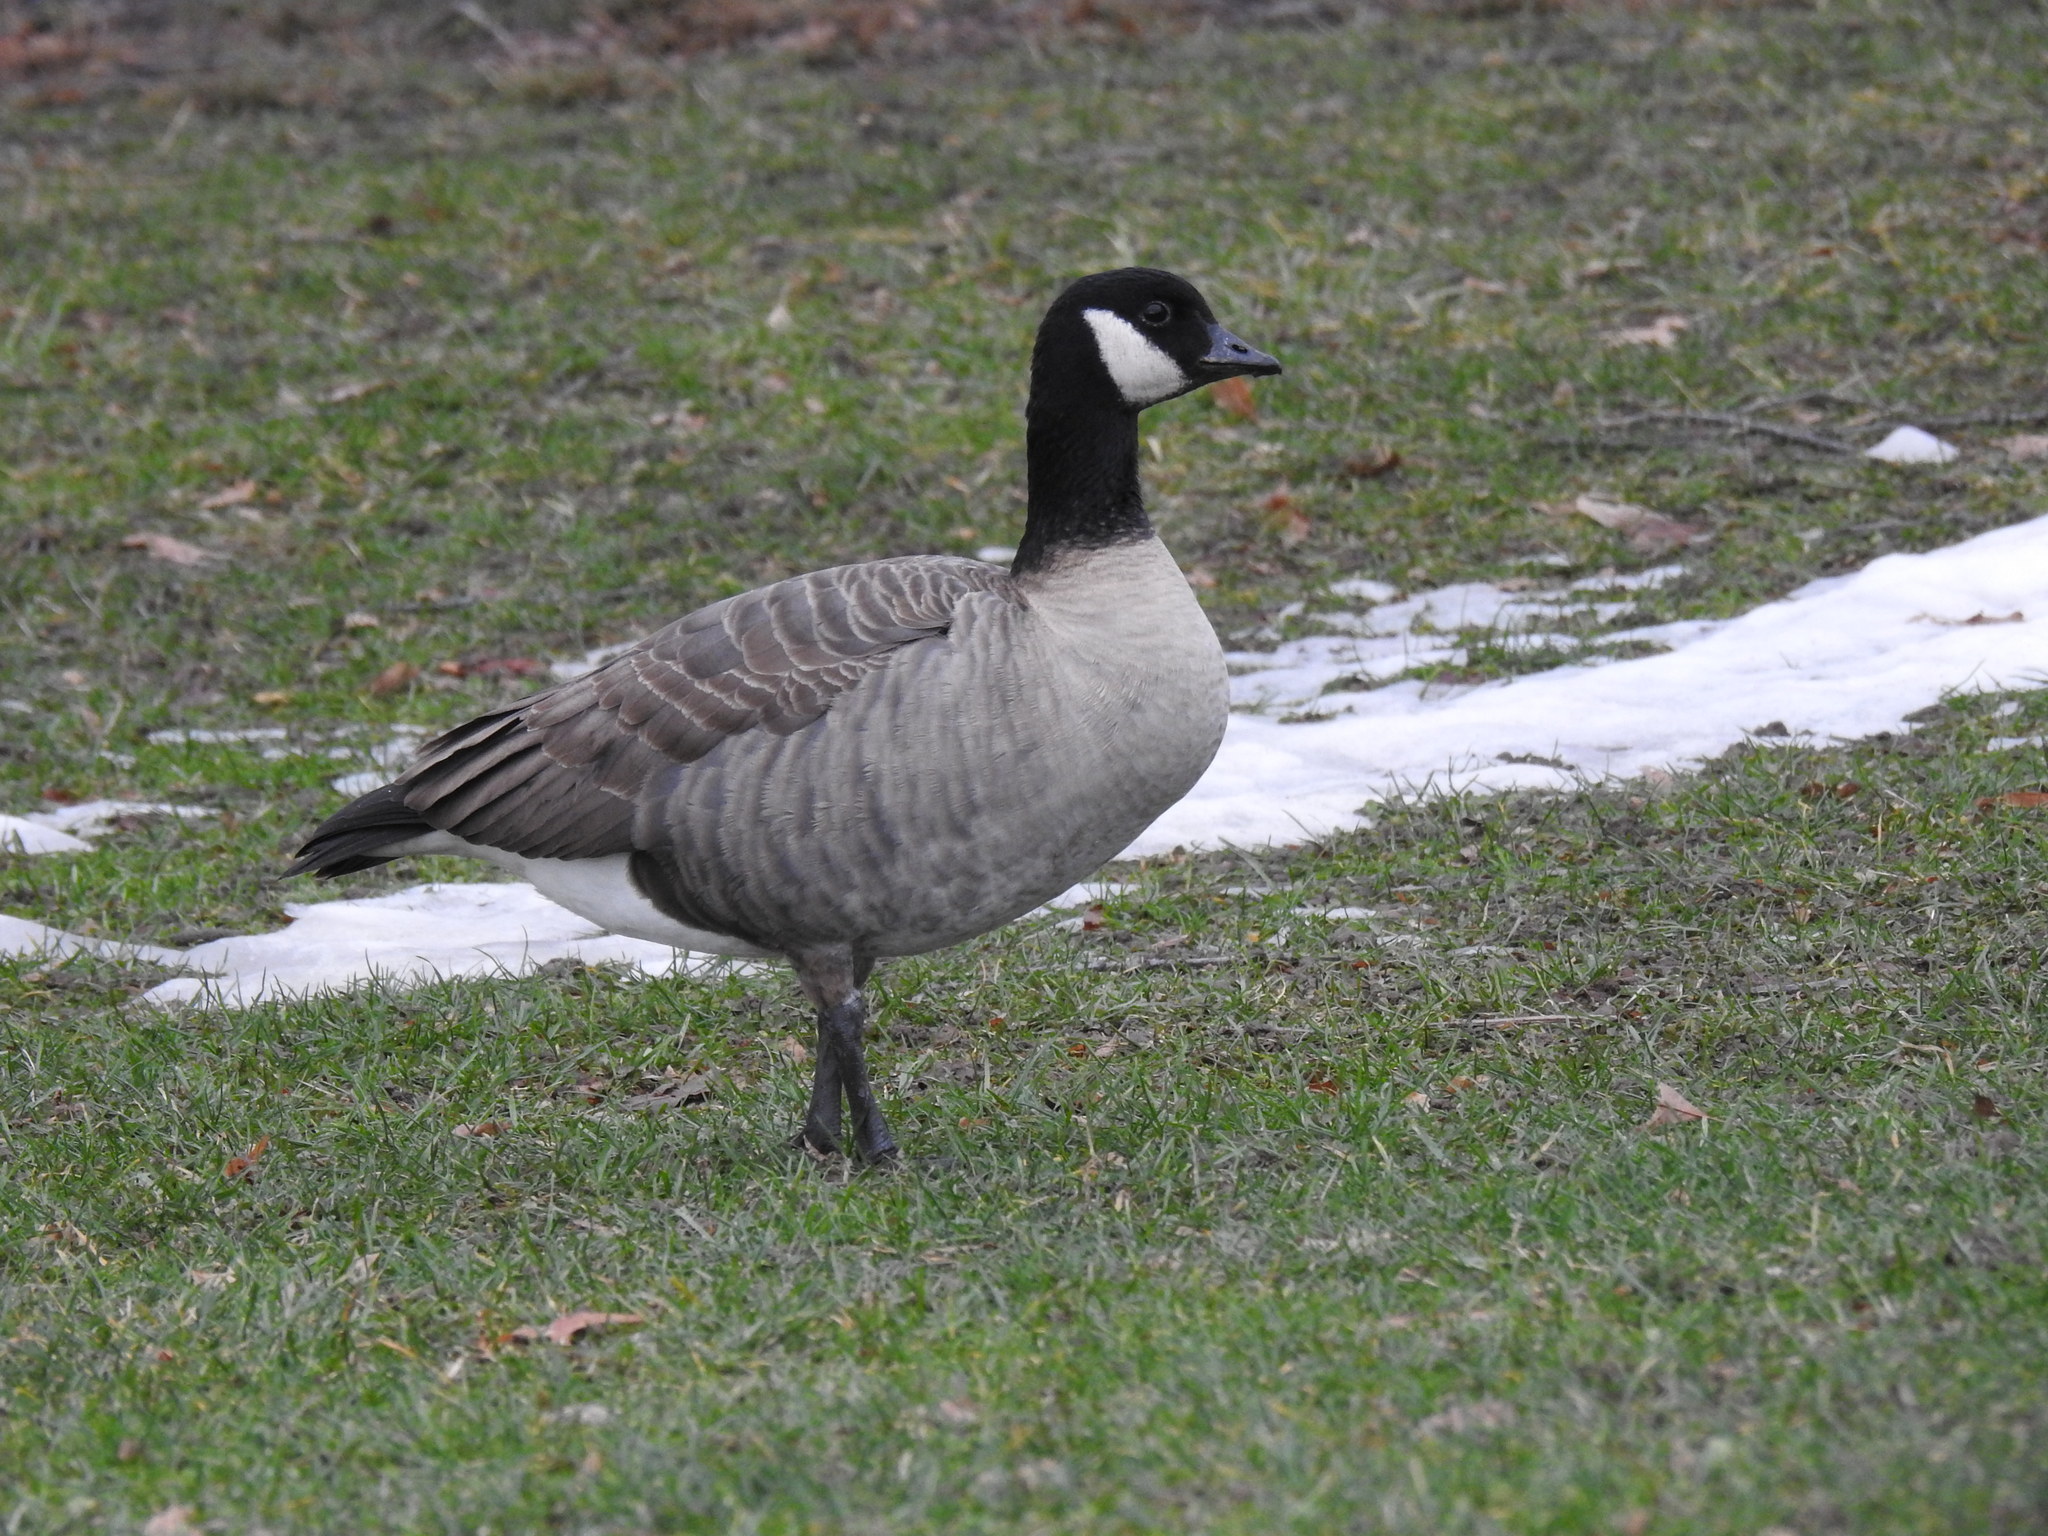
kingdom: Animalia
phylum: Chordata
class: Aves
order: Anseriformes
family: Anatidae
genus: Branta
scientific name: Branta hutchinsii
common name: Cackling goose
